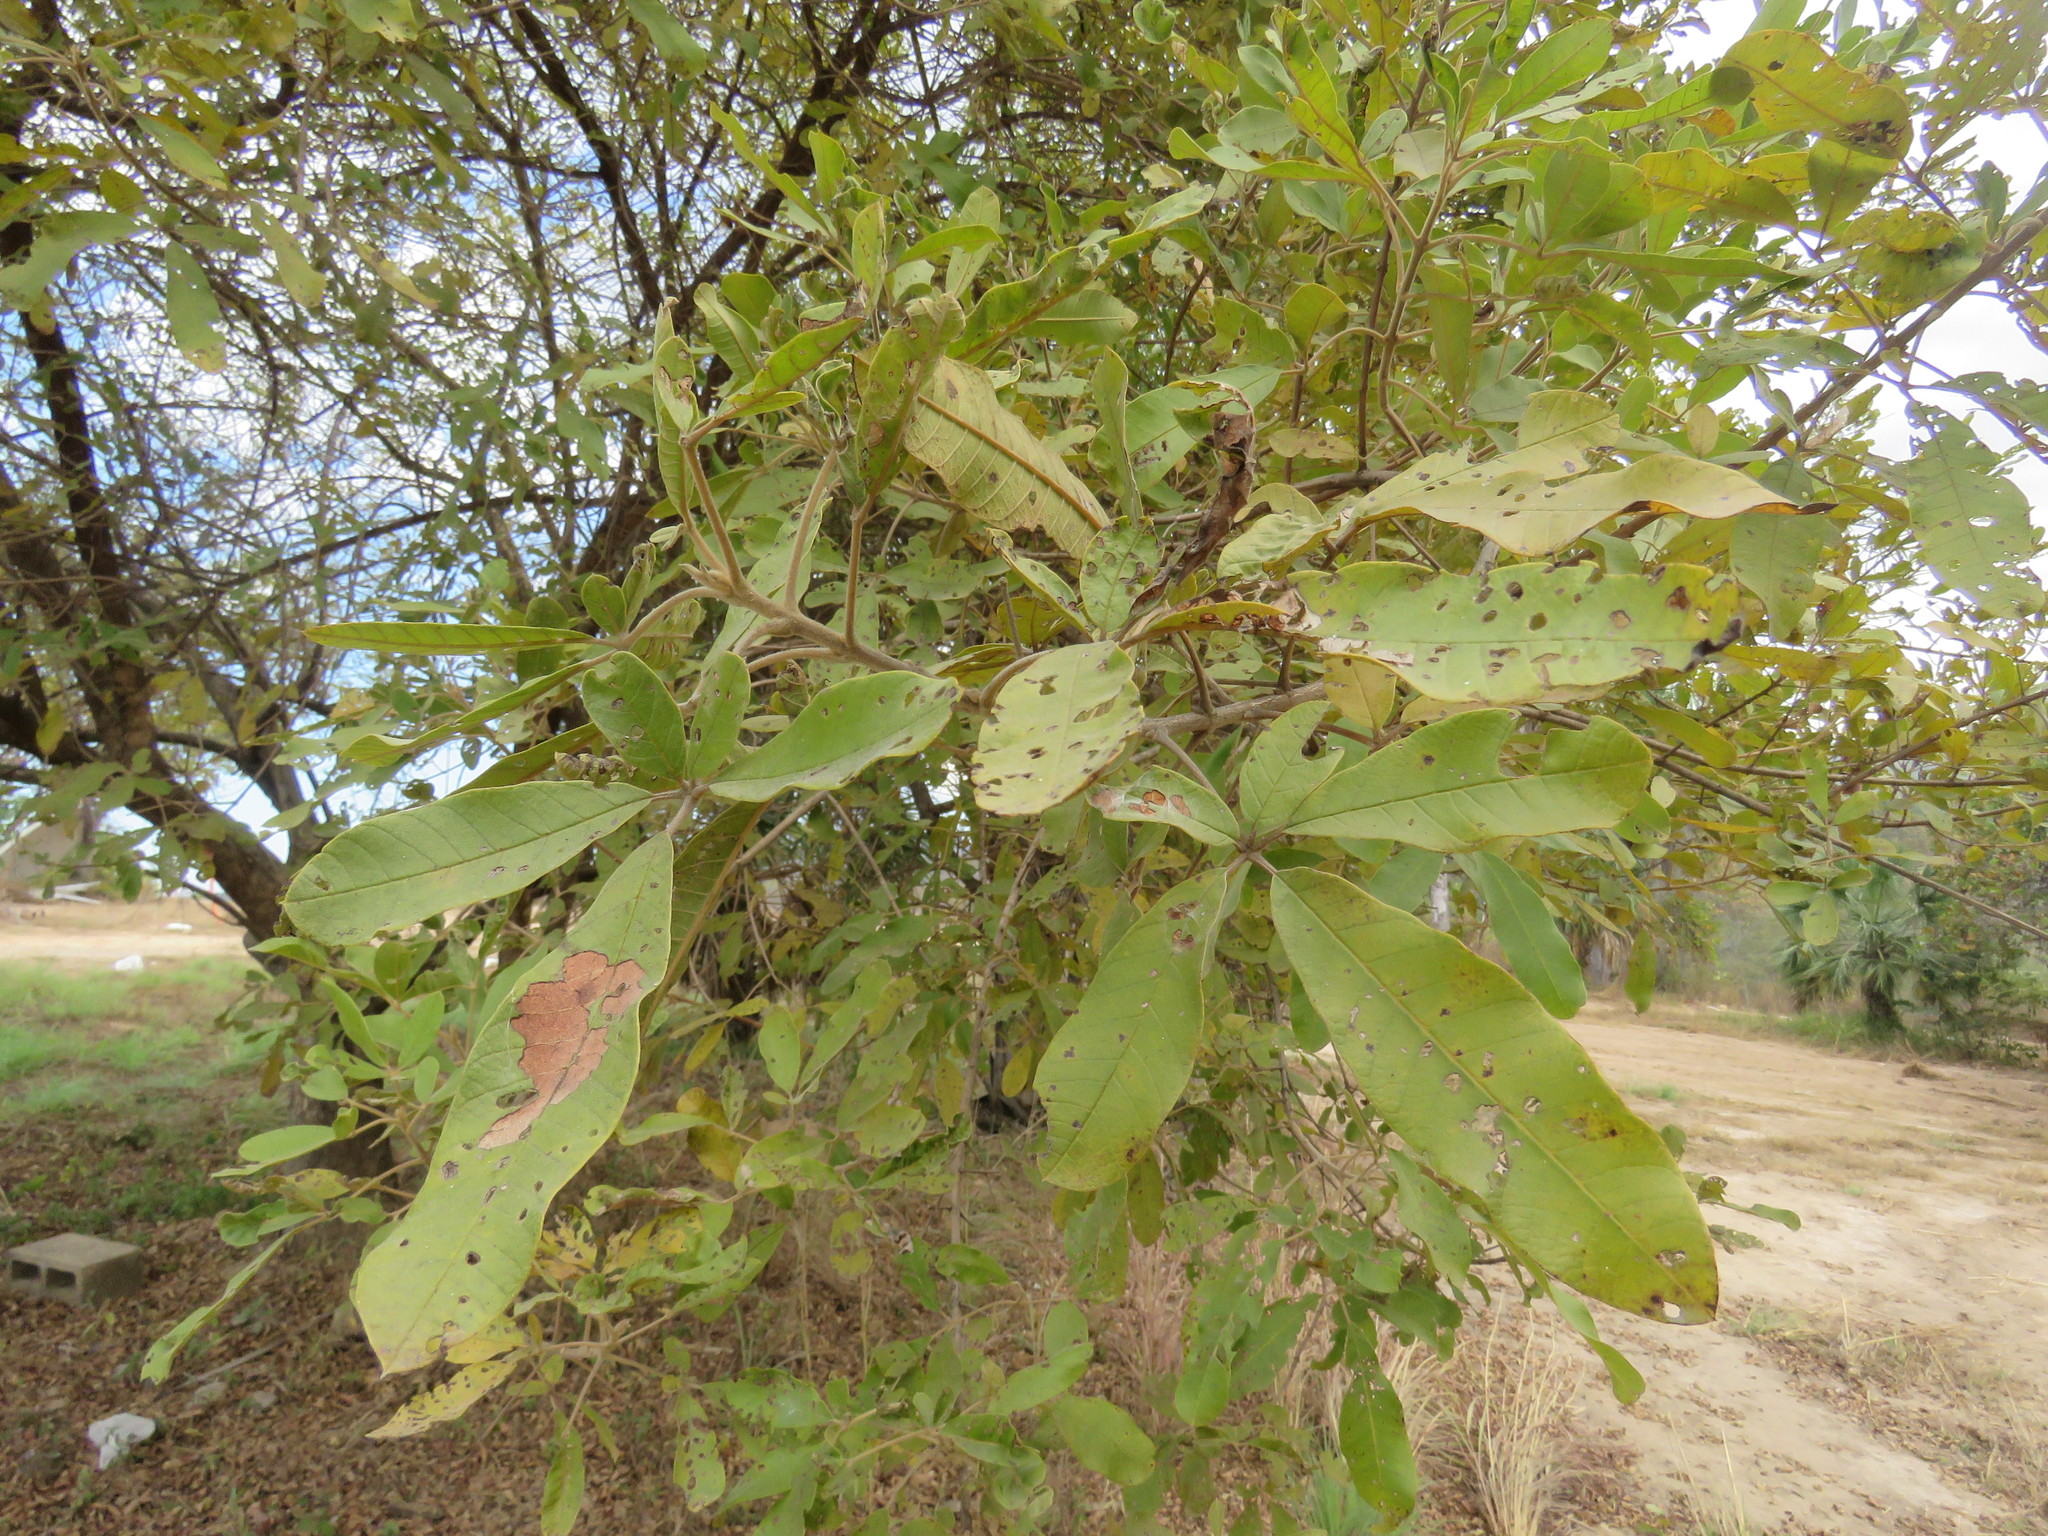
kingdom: Plantae
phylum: Tracheophyta
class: Magnoliopsida
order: Lamiales
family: Lamiaceae
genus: Vitex
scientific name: Vitex pyramidata
